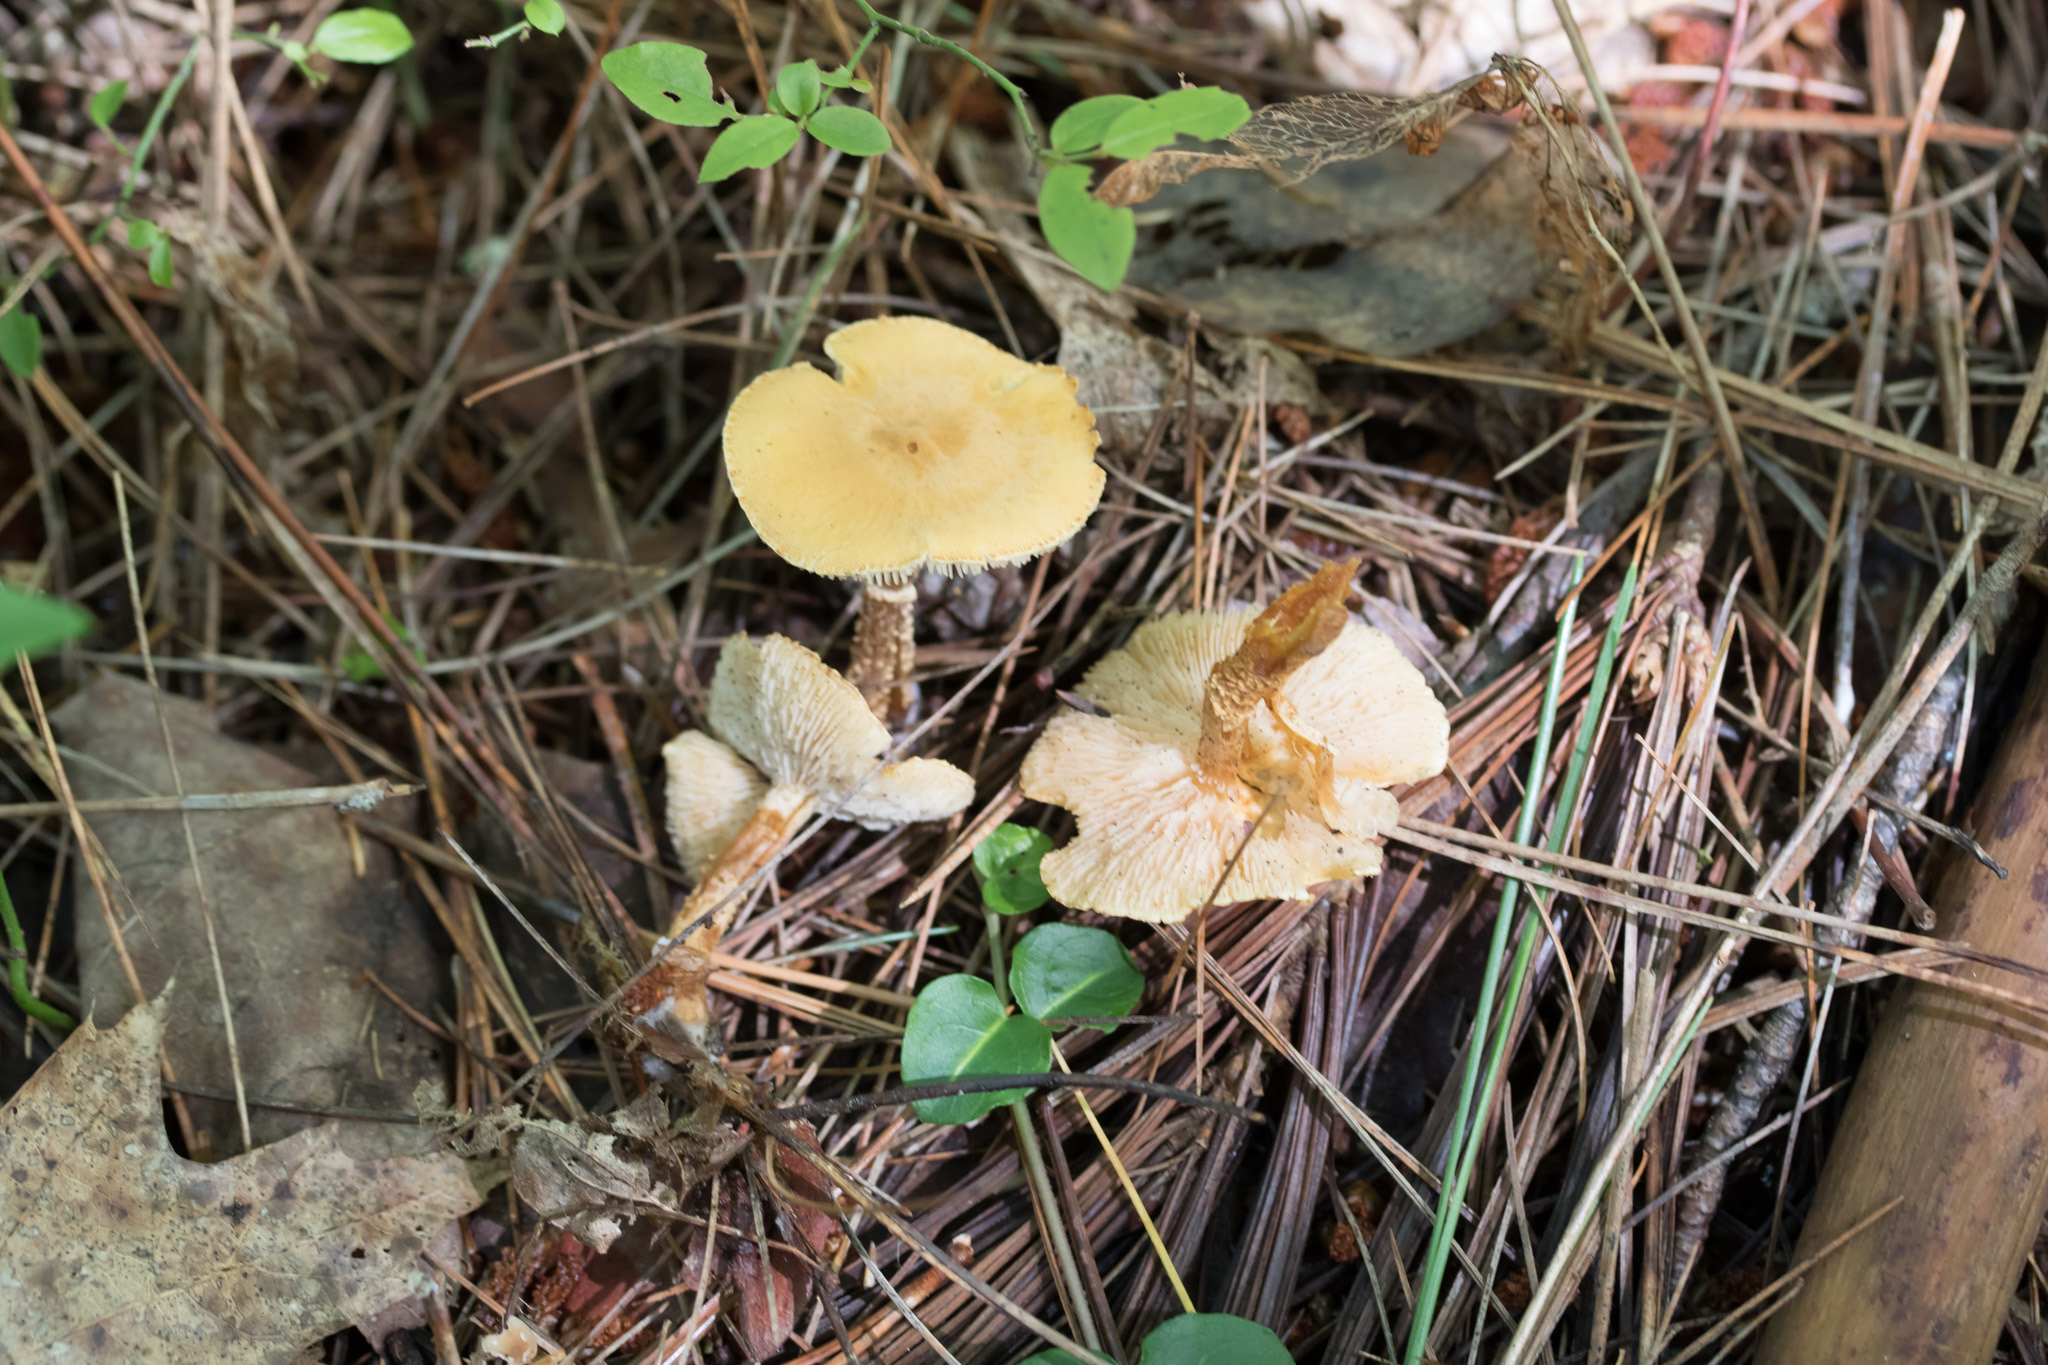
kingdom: Fungi
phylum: Basidiomycota
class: Agaricomycetes
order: Agaricales
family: Tricholomataceae
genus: Cystoderma
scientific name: Cystoderma amianthinum
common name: Earthy powdercap
